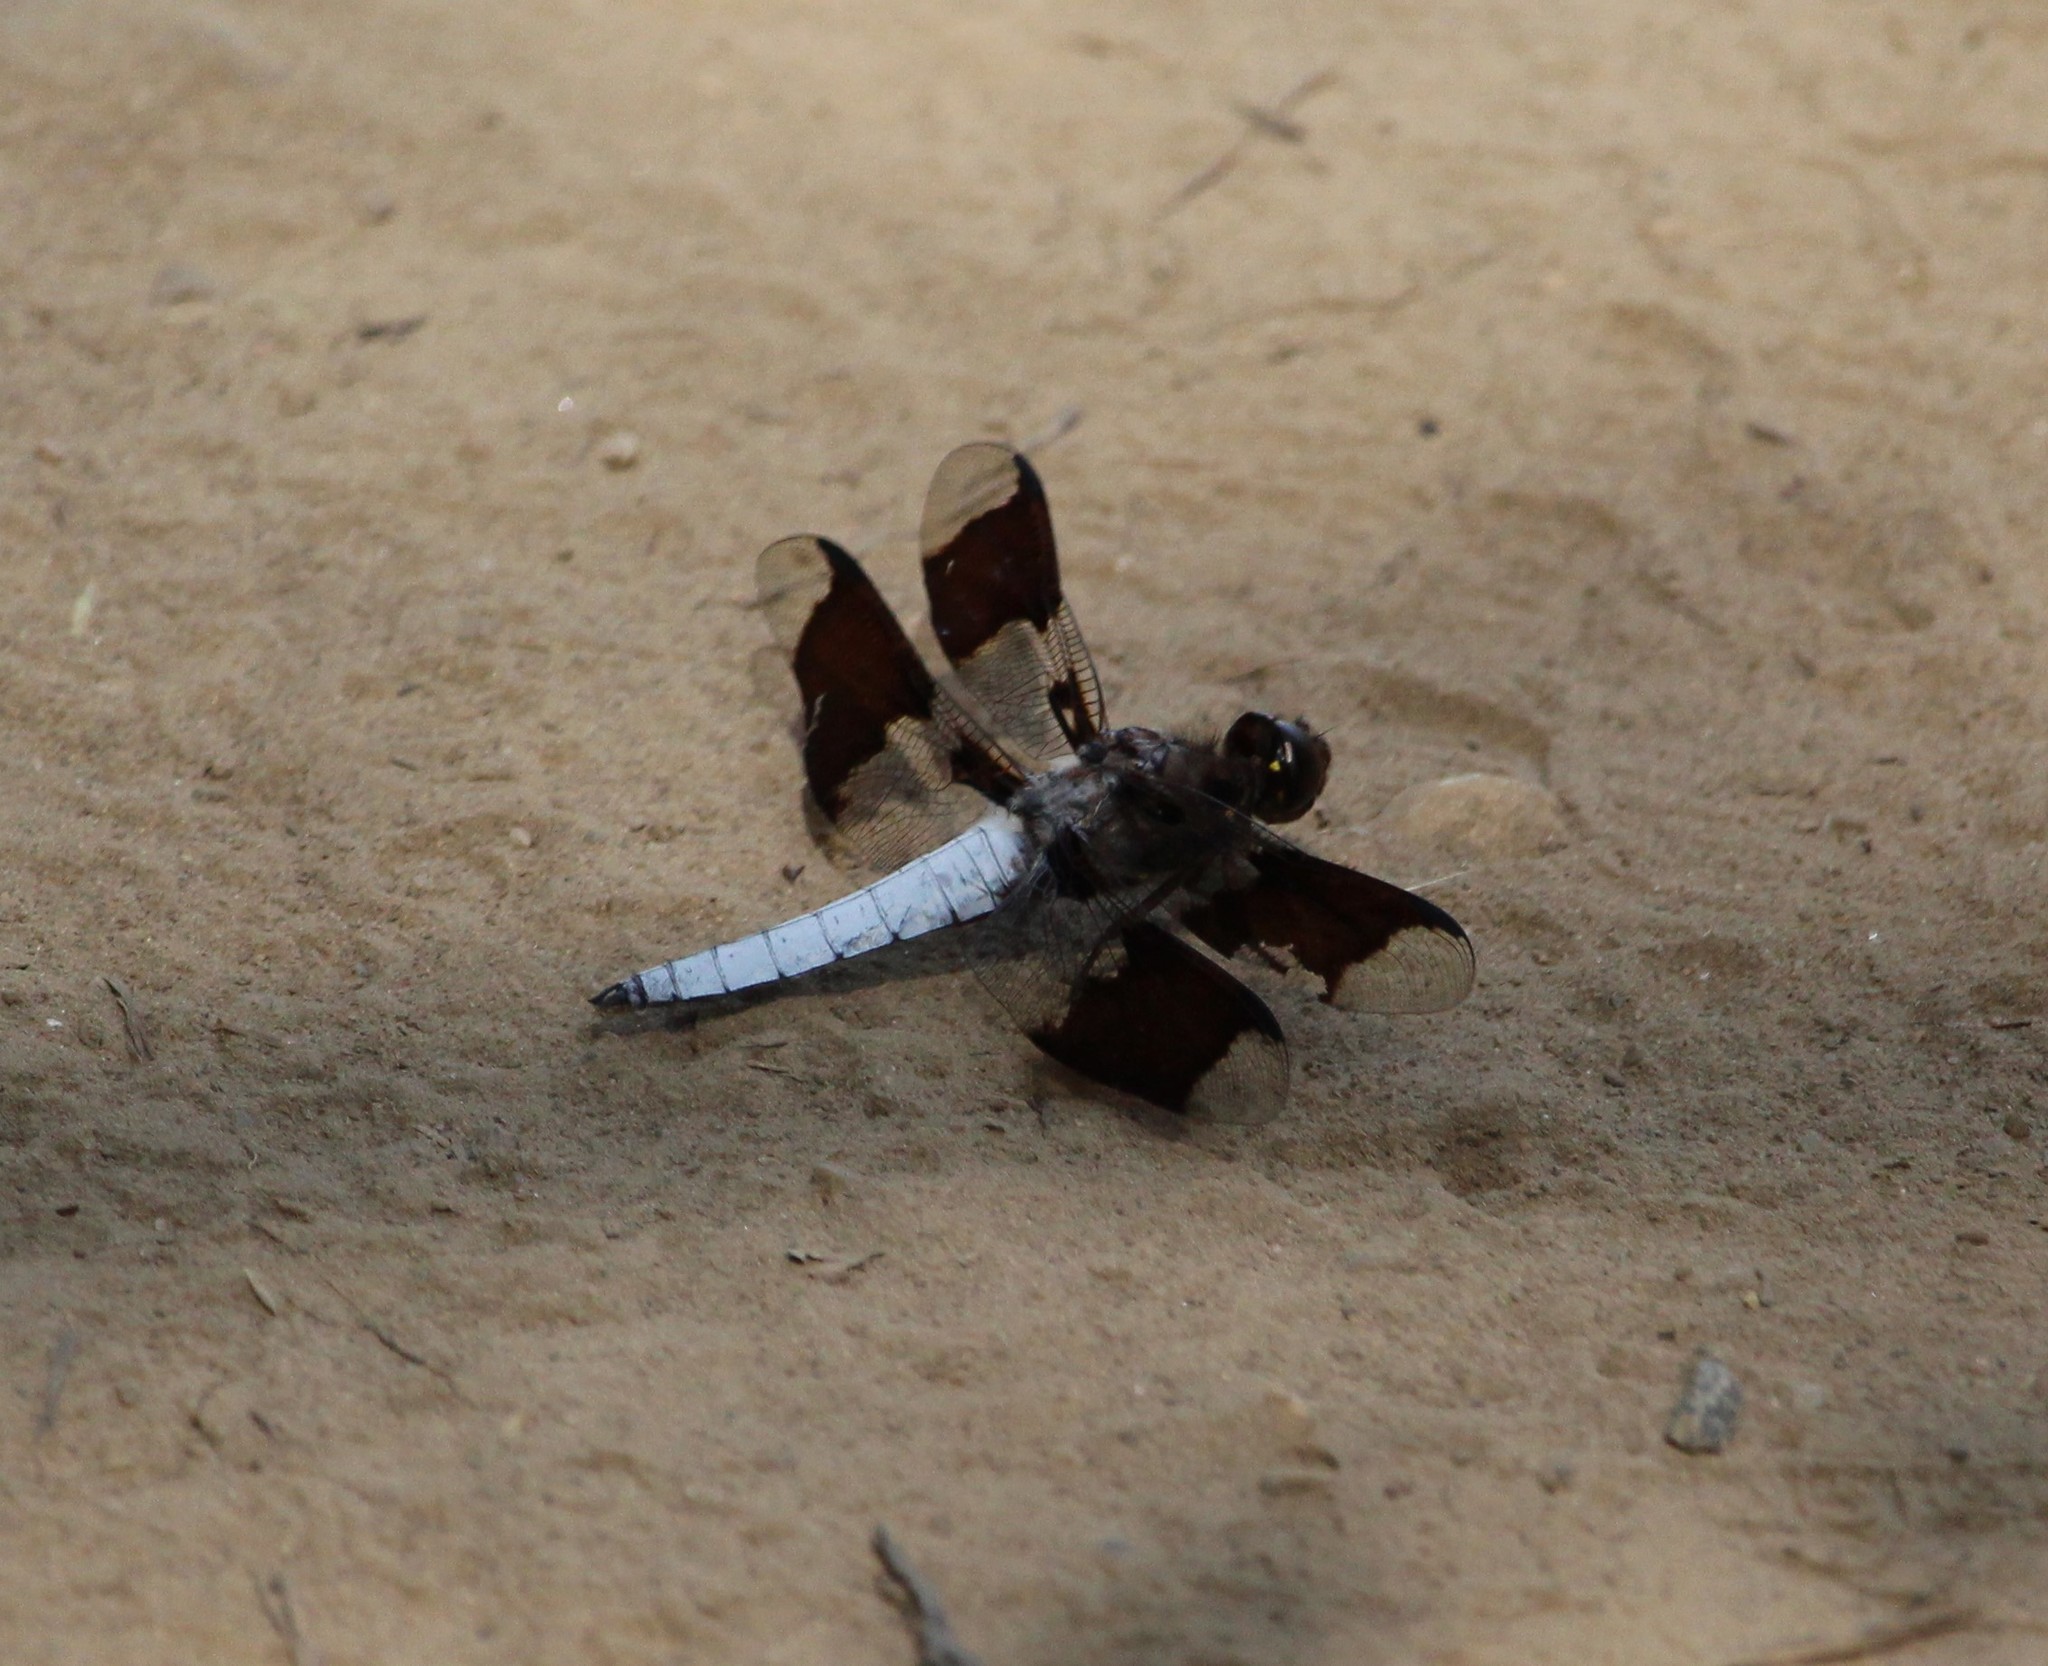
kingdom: Animalia
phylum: Arthropoda
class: Insecta
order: Odonata
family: Libellulidae
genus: Plathemis
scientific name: Plathemis lydia
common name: Common whitetail
